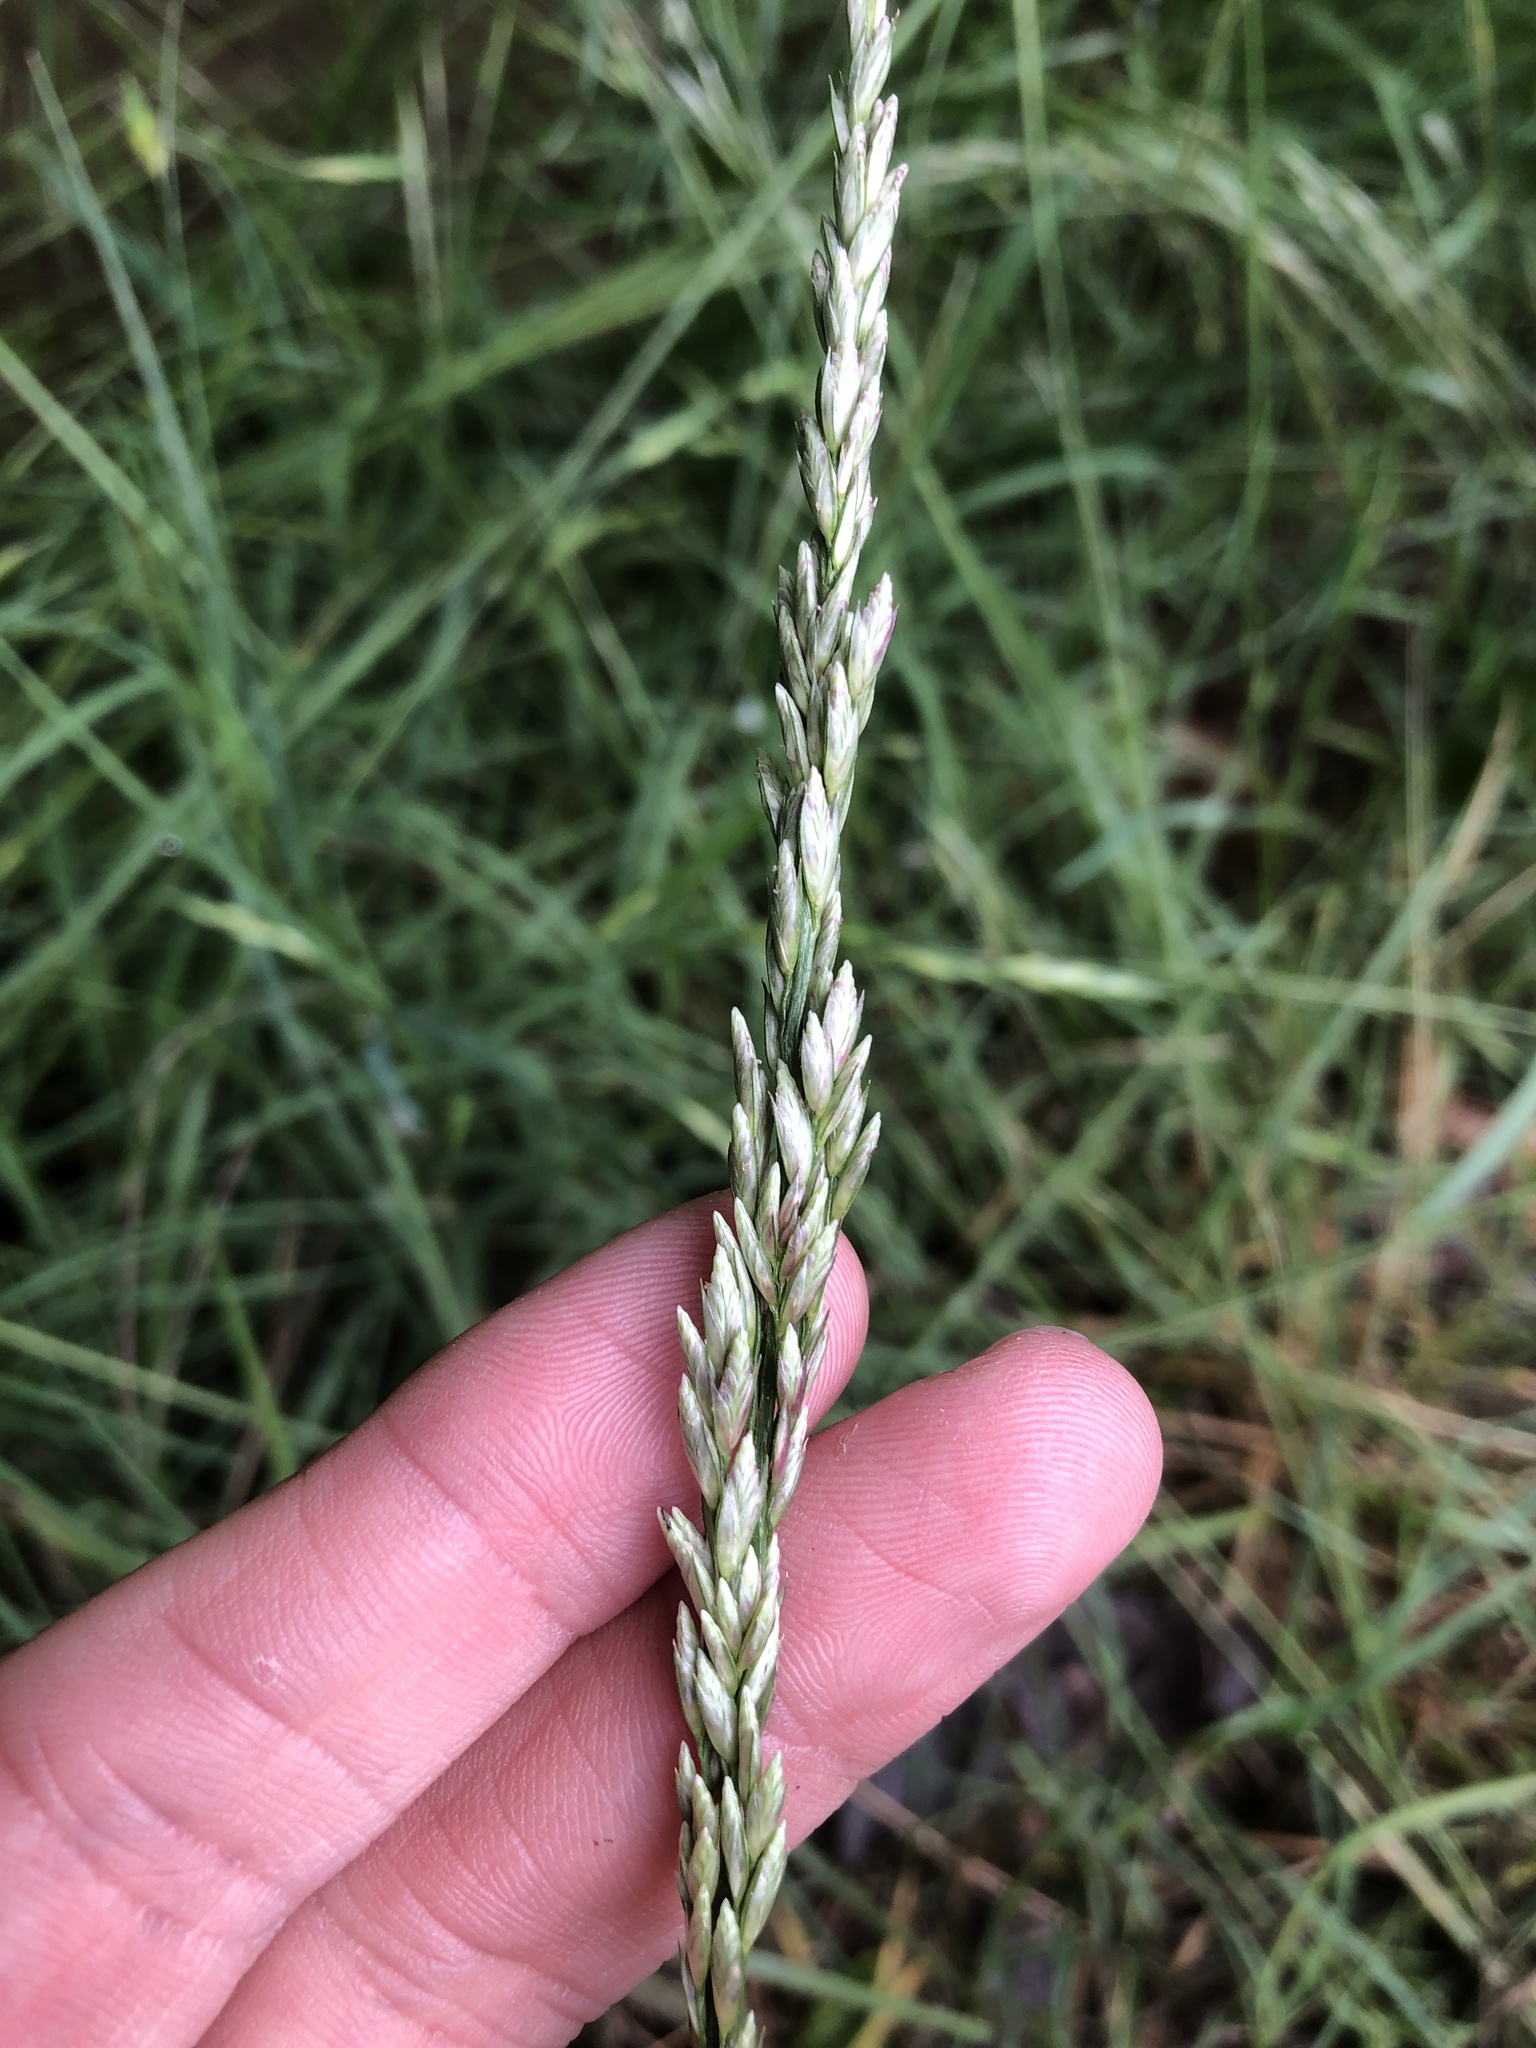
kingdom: Plantae
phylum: Tracheophyta
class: Liliopsida
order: Poales
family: Poaceae
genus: Tridens
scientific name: Tridens albescens
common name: White tridens
